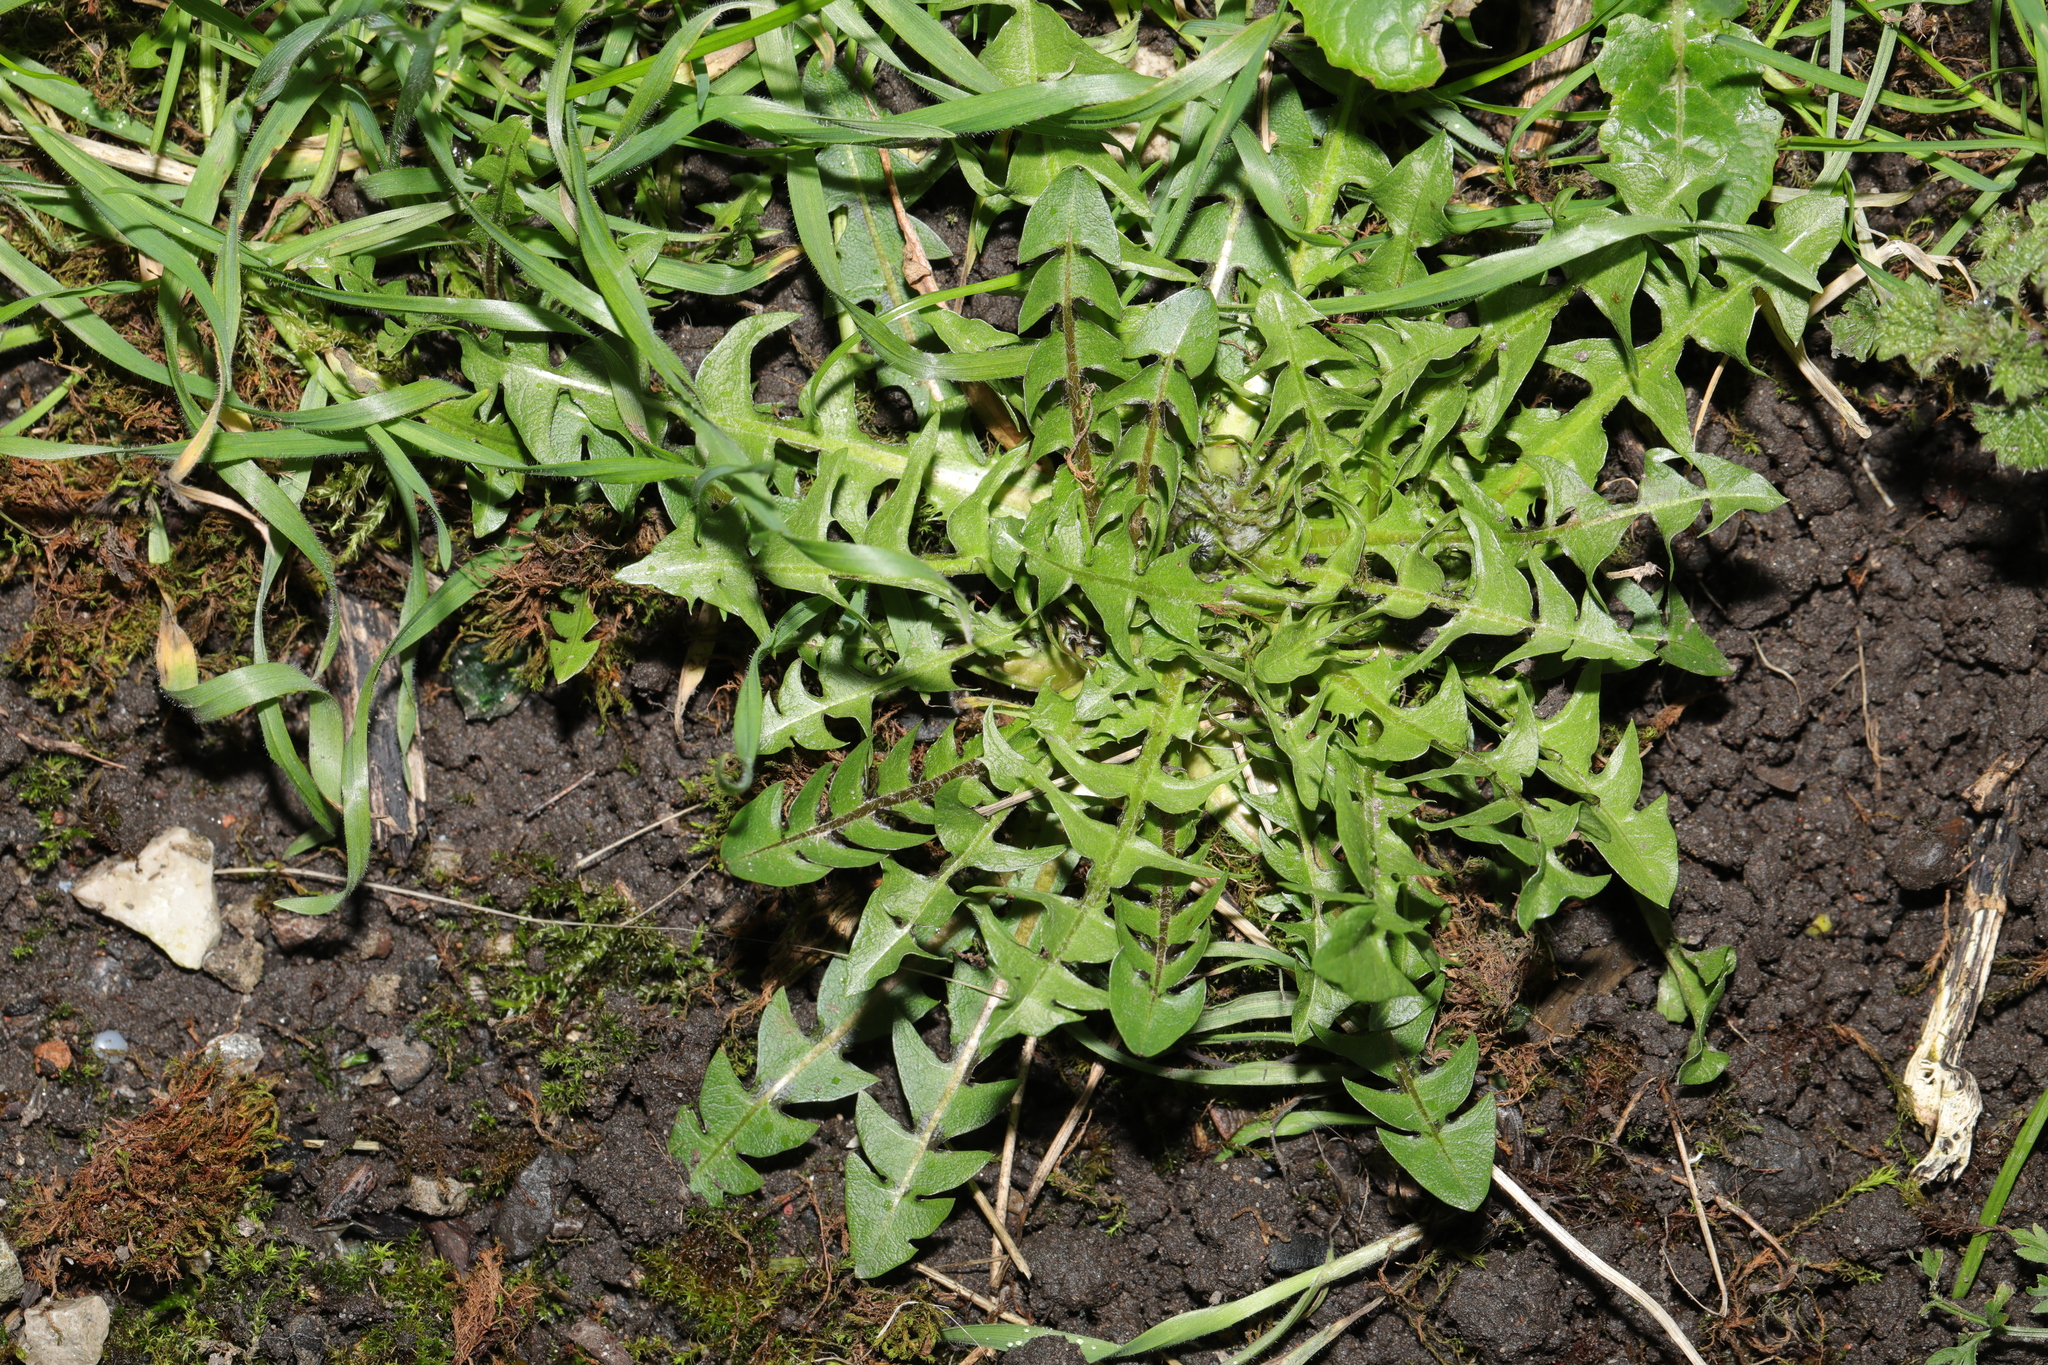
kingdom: Plantae
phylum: Tracheophyta
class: Magnoliopsida
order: Asterales
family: Asteraceae
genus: Taraxacum
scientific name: Taraxacum officinale
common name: Common dandelion
